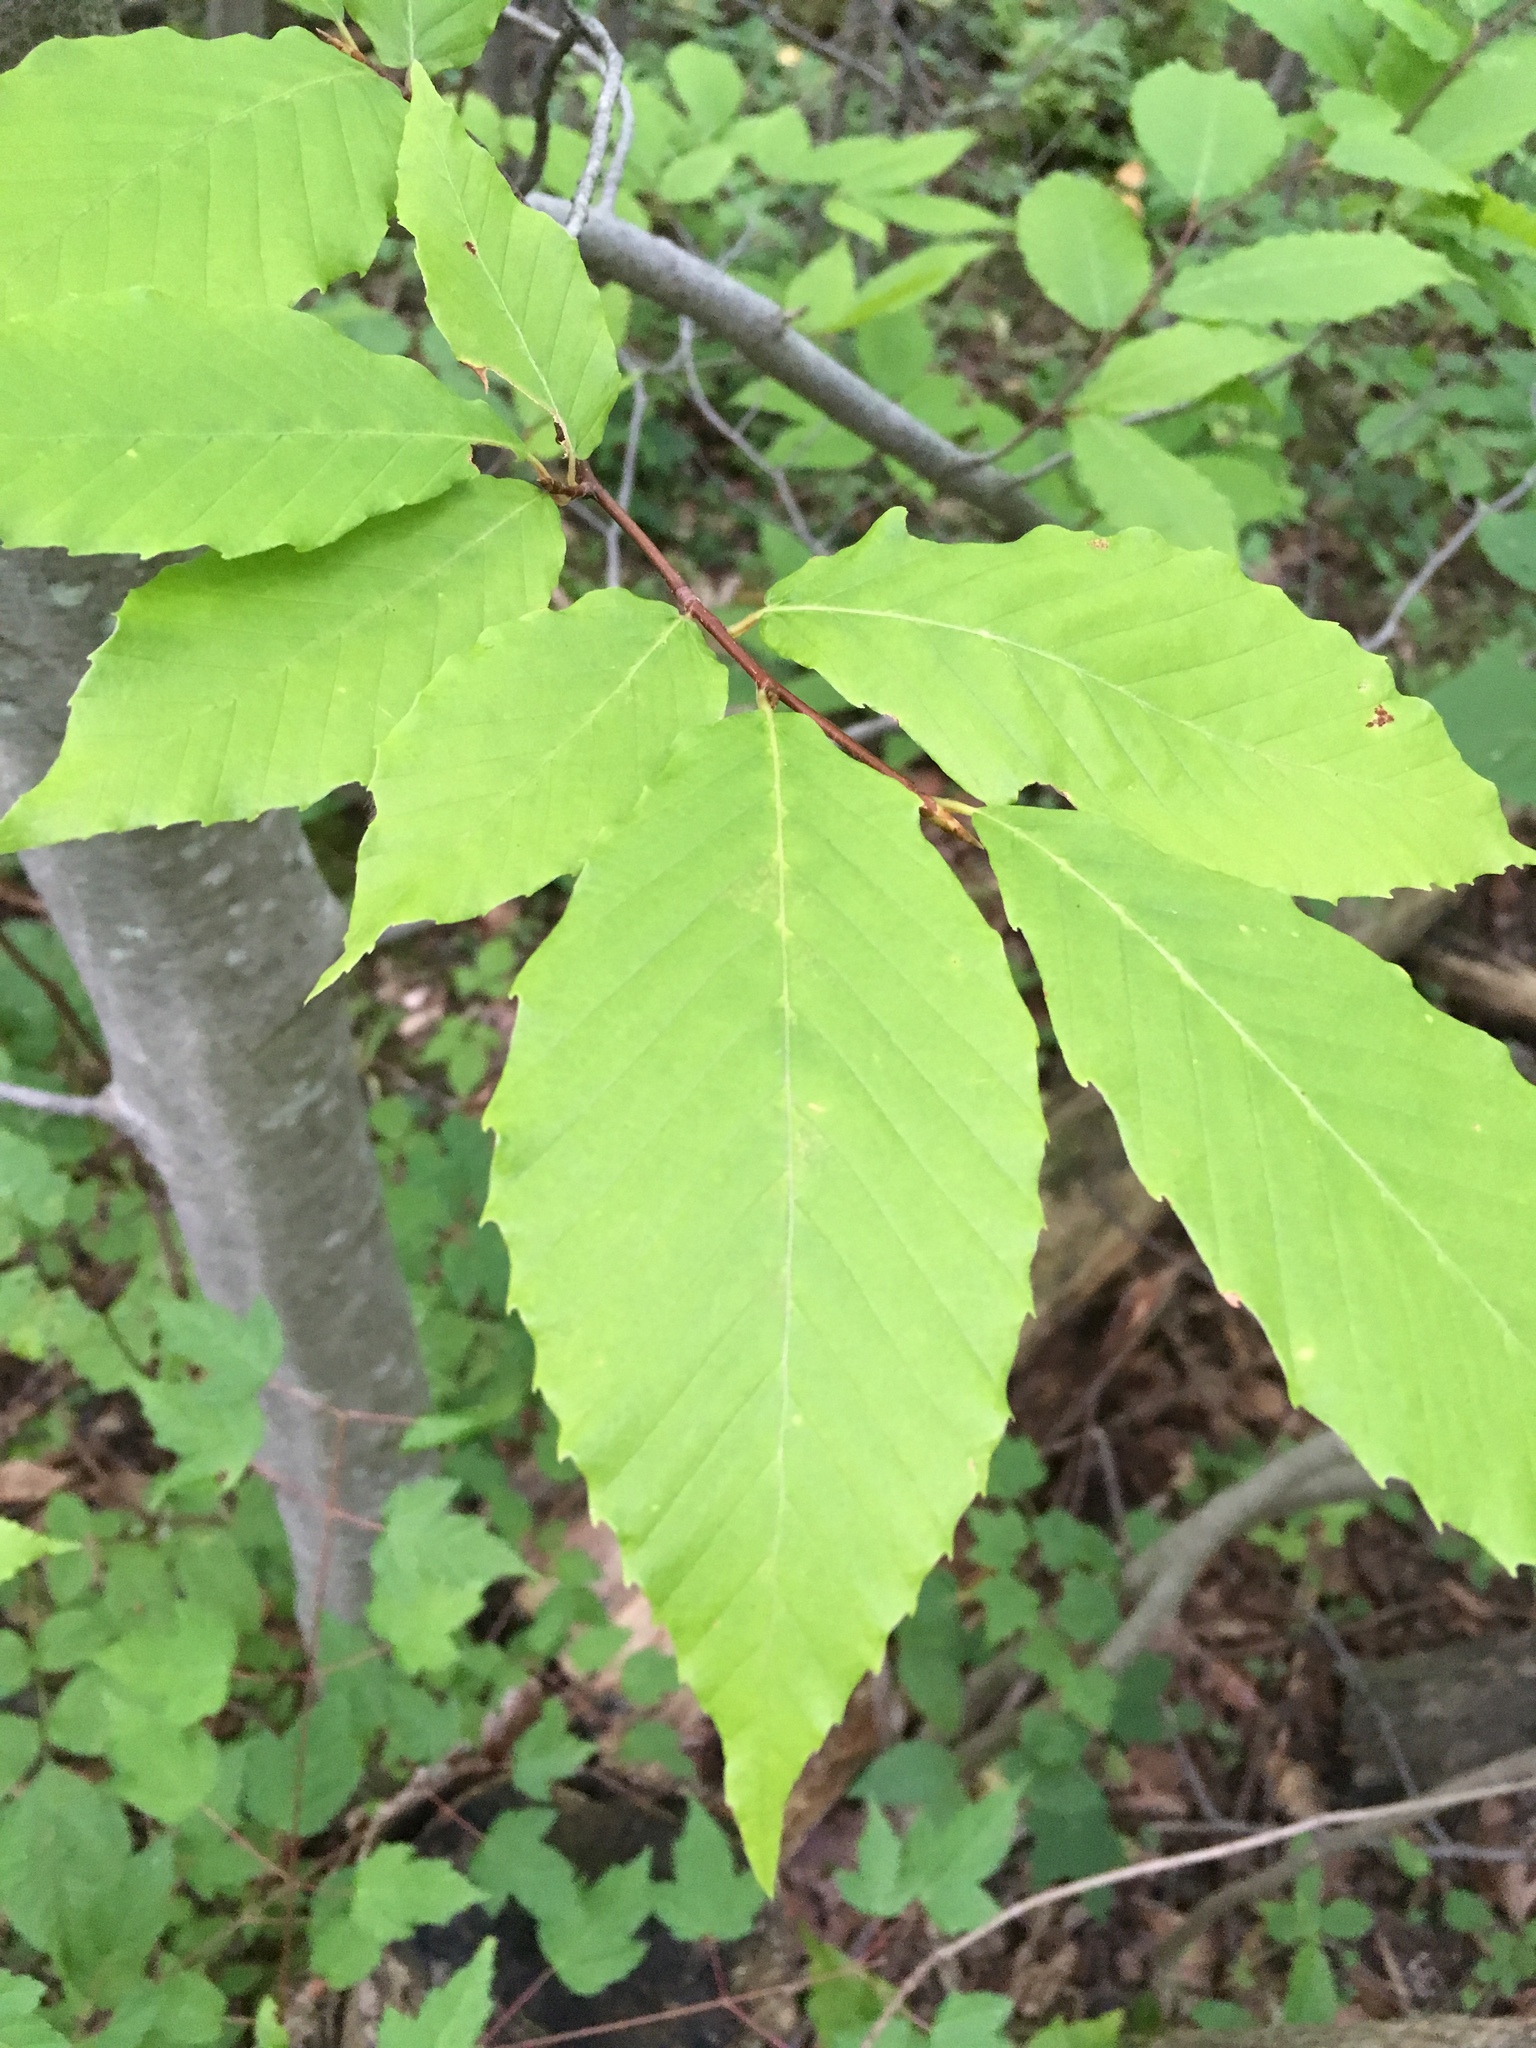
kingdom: Plantae
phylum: Tracheophyta
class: Magnoliopsida
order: Fagales
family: Fagaceae
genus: Fagus
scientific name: Fagus grandifolia
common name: American beech
